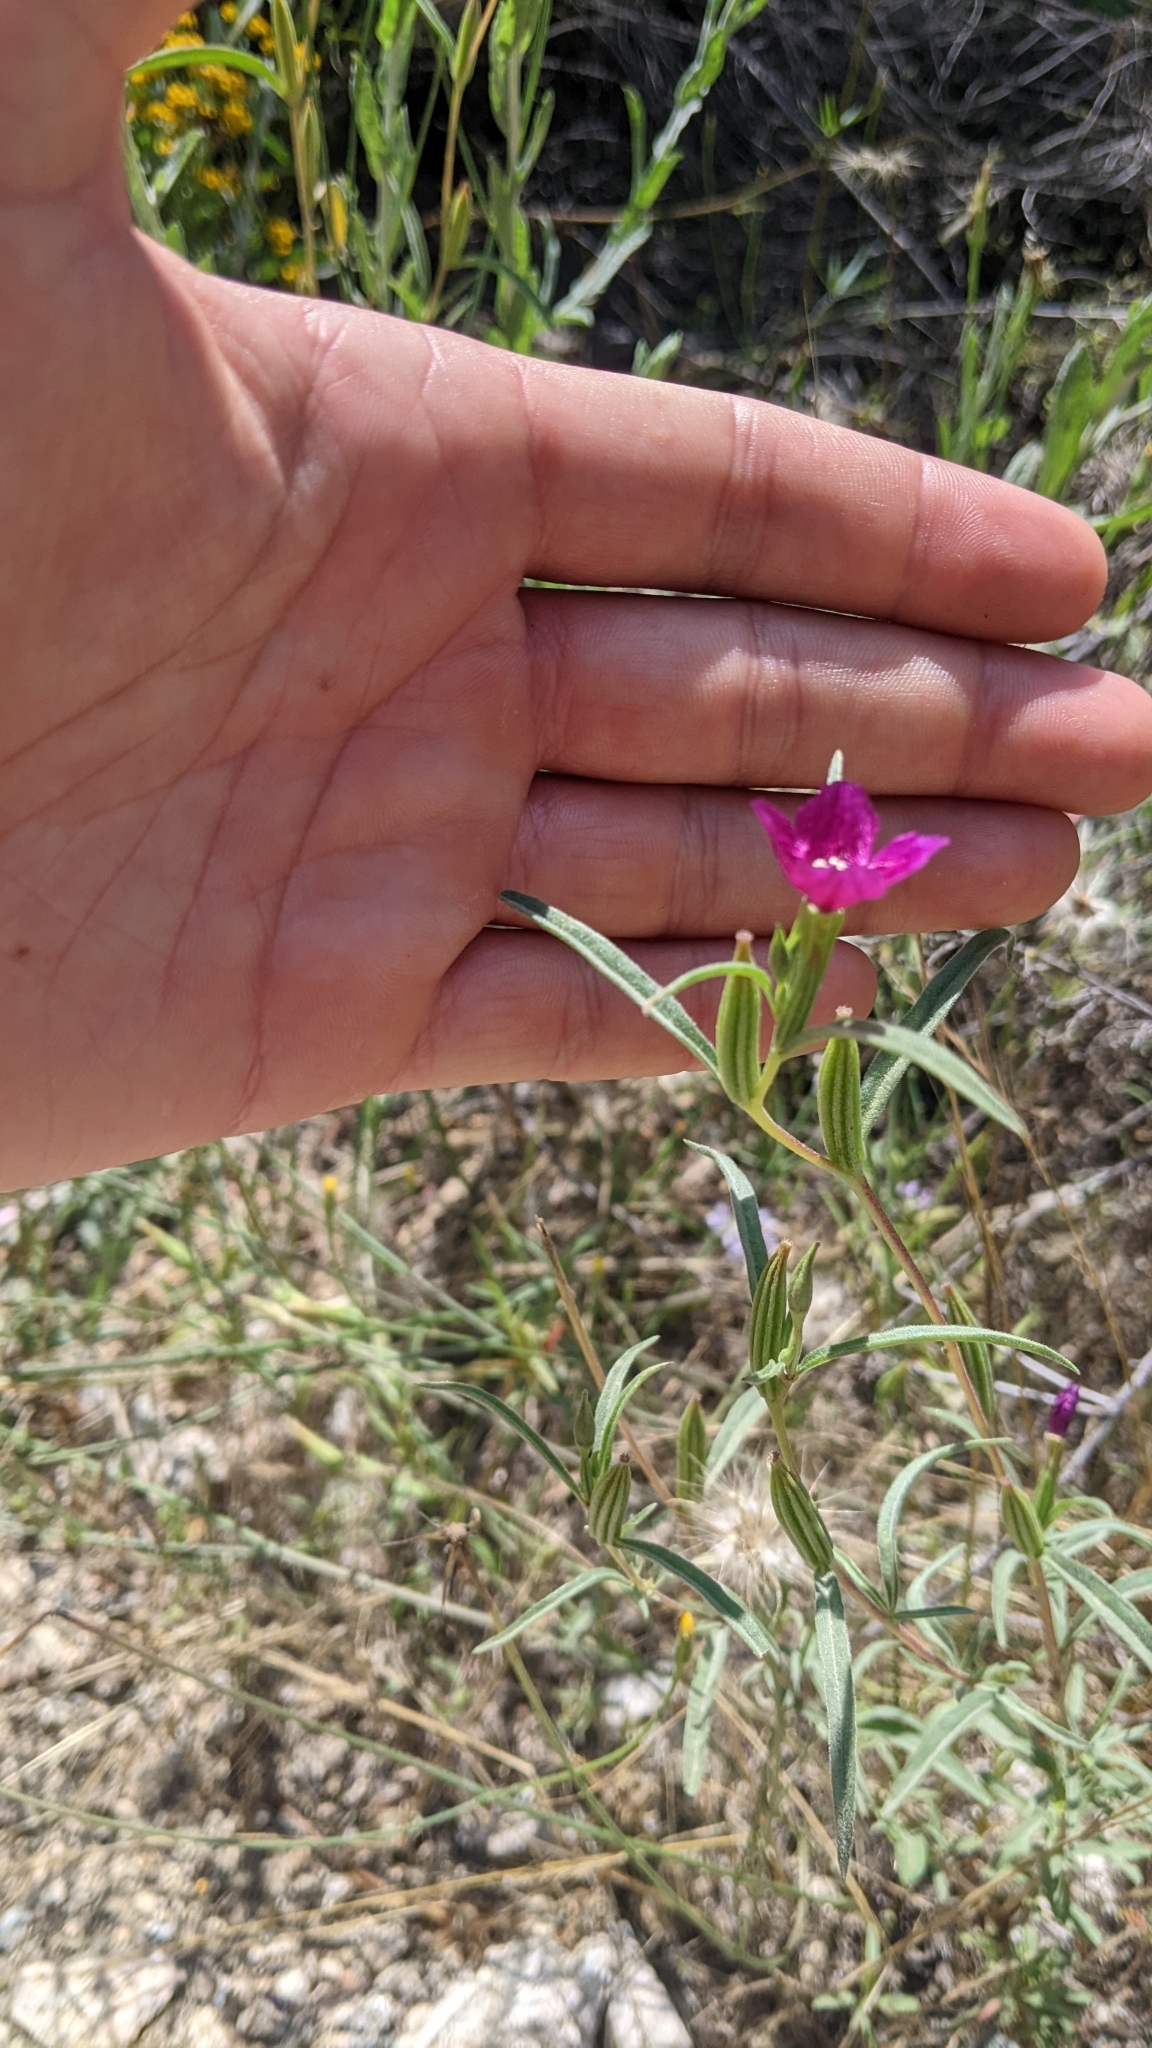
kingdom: Plantae
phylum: Tracheophyta
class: Magnoliopsida
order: Myrtales
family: Onagraceae
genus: Clarkia
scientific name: Clarkia purpurea
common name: Purple clarkia
